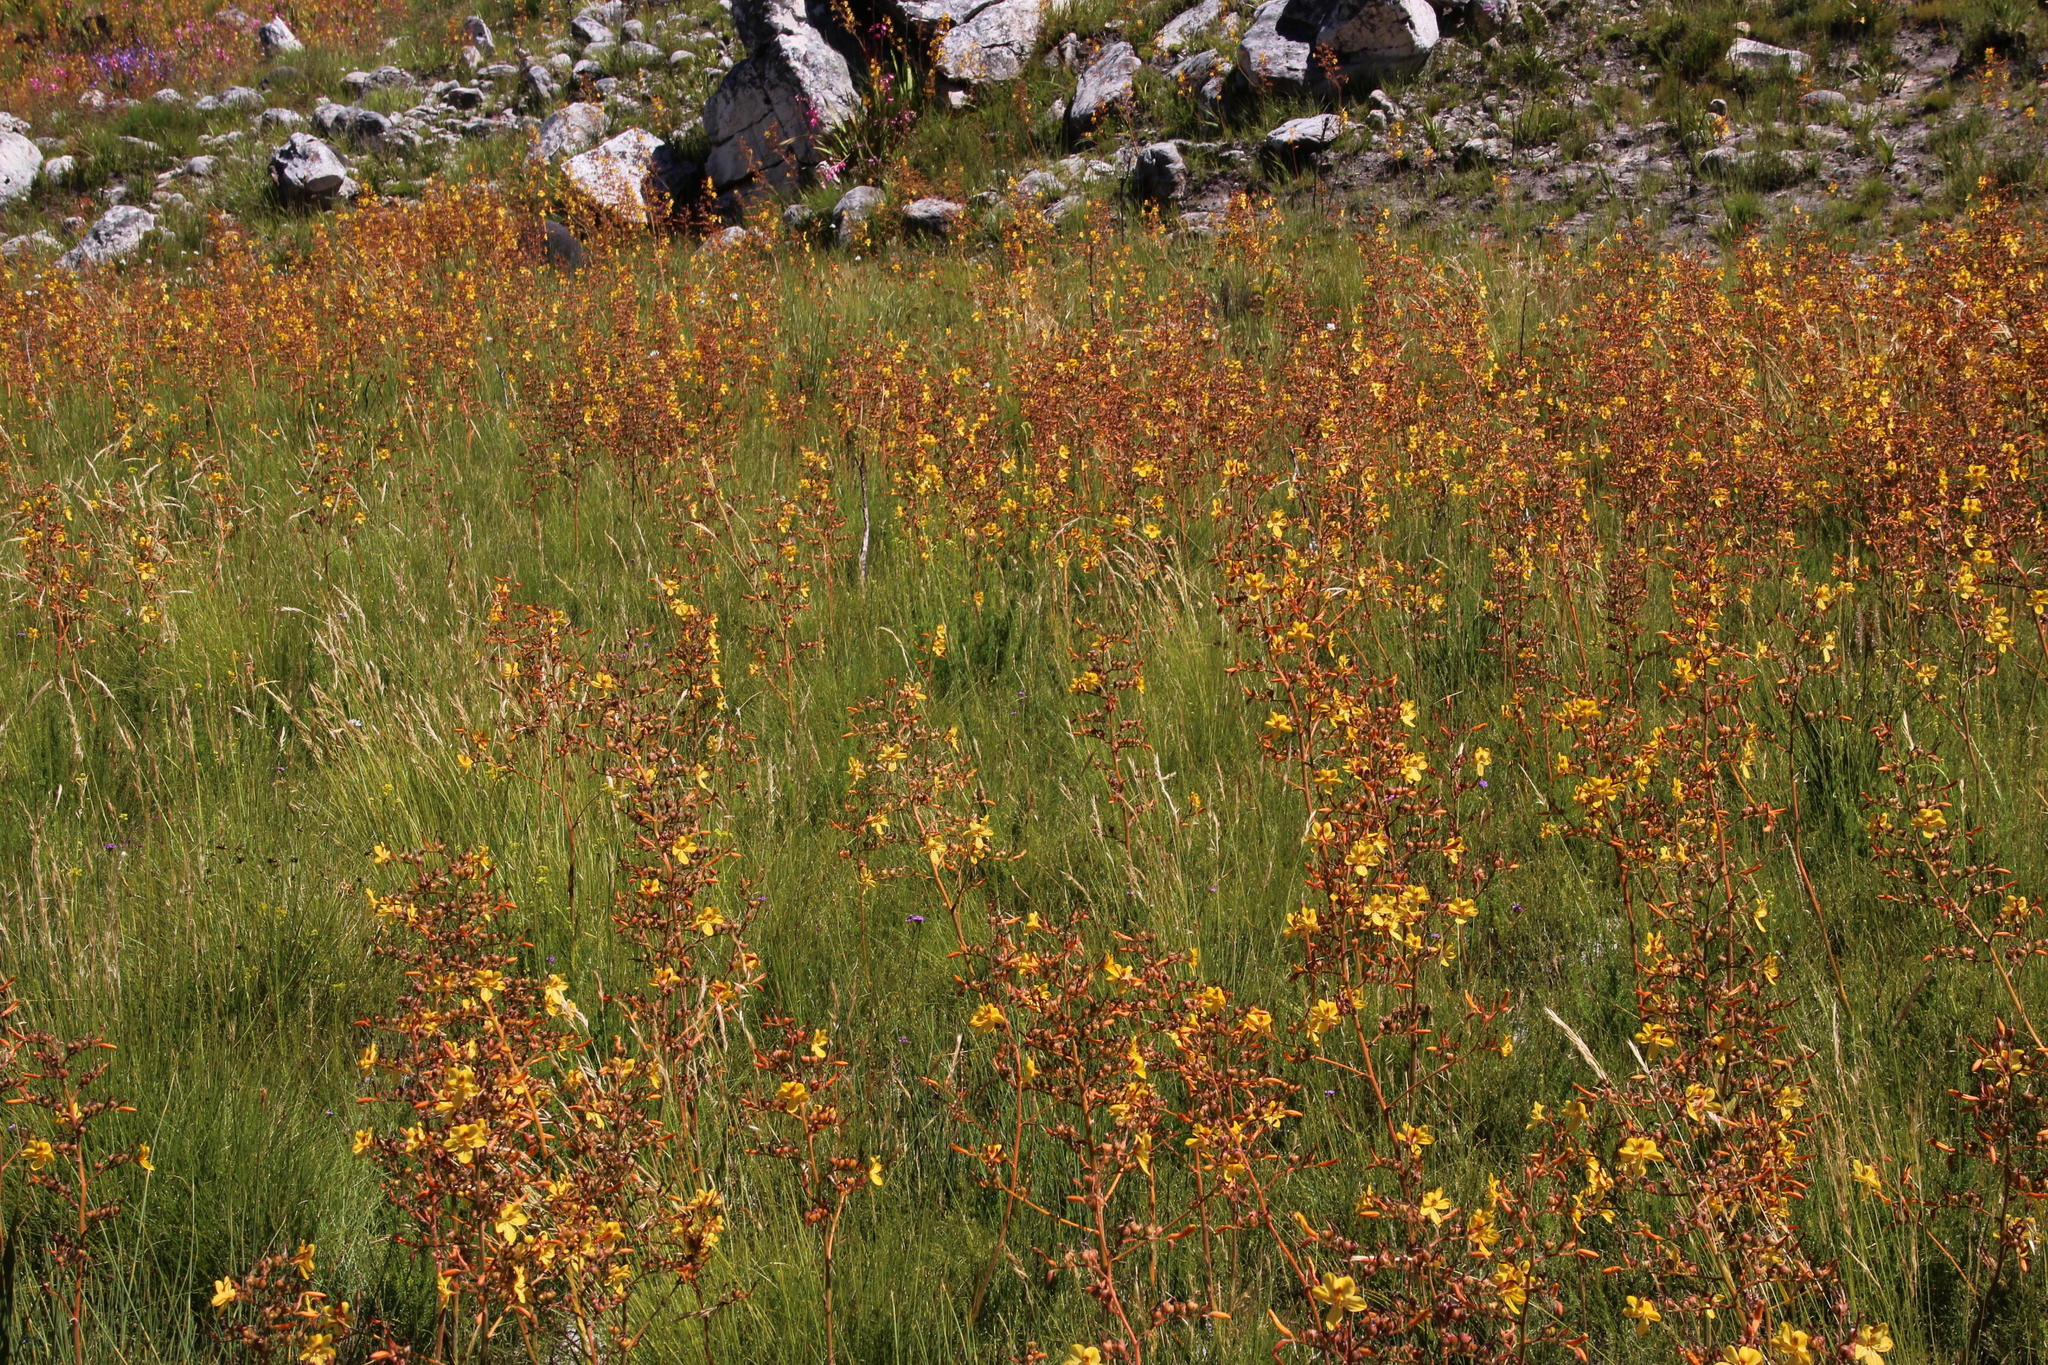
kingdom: Plantae
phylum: Tracheophyta
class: Liliopsida
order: Commelinales
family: Haemodoraceae
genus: Wachendorfia
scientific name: Wachendorfia paniculata
